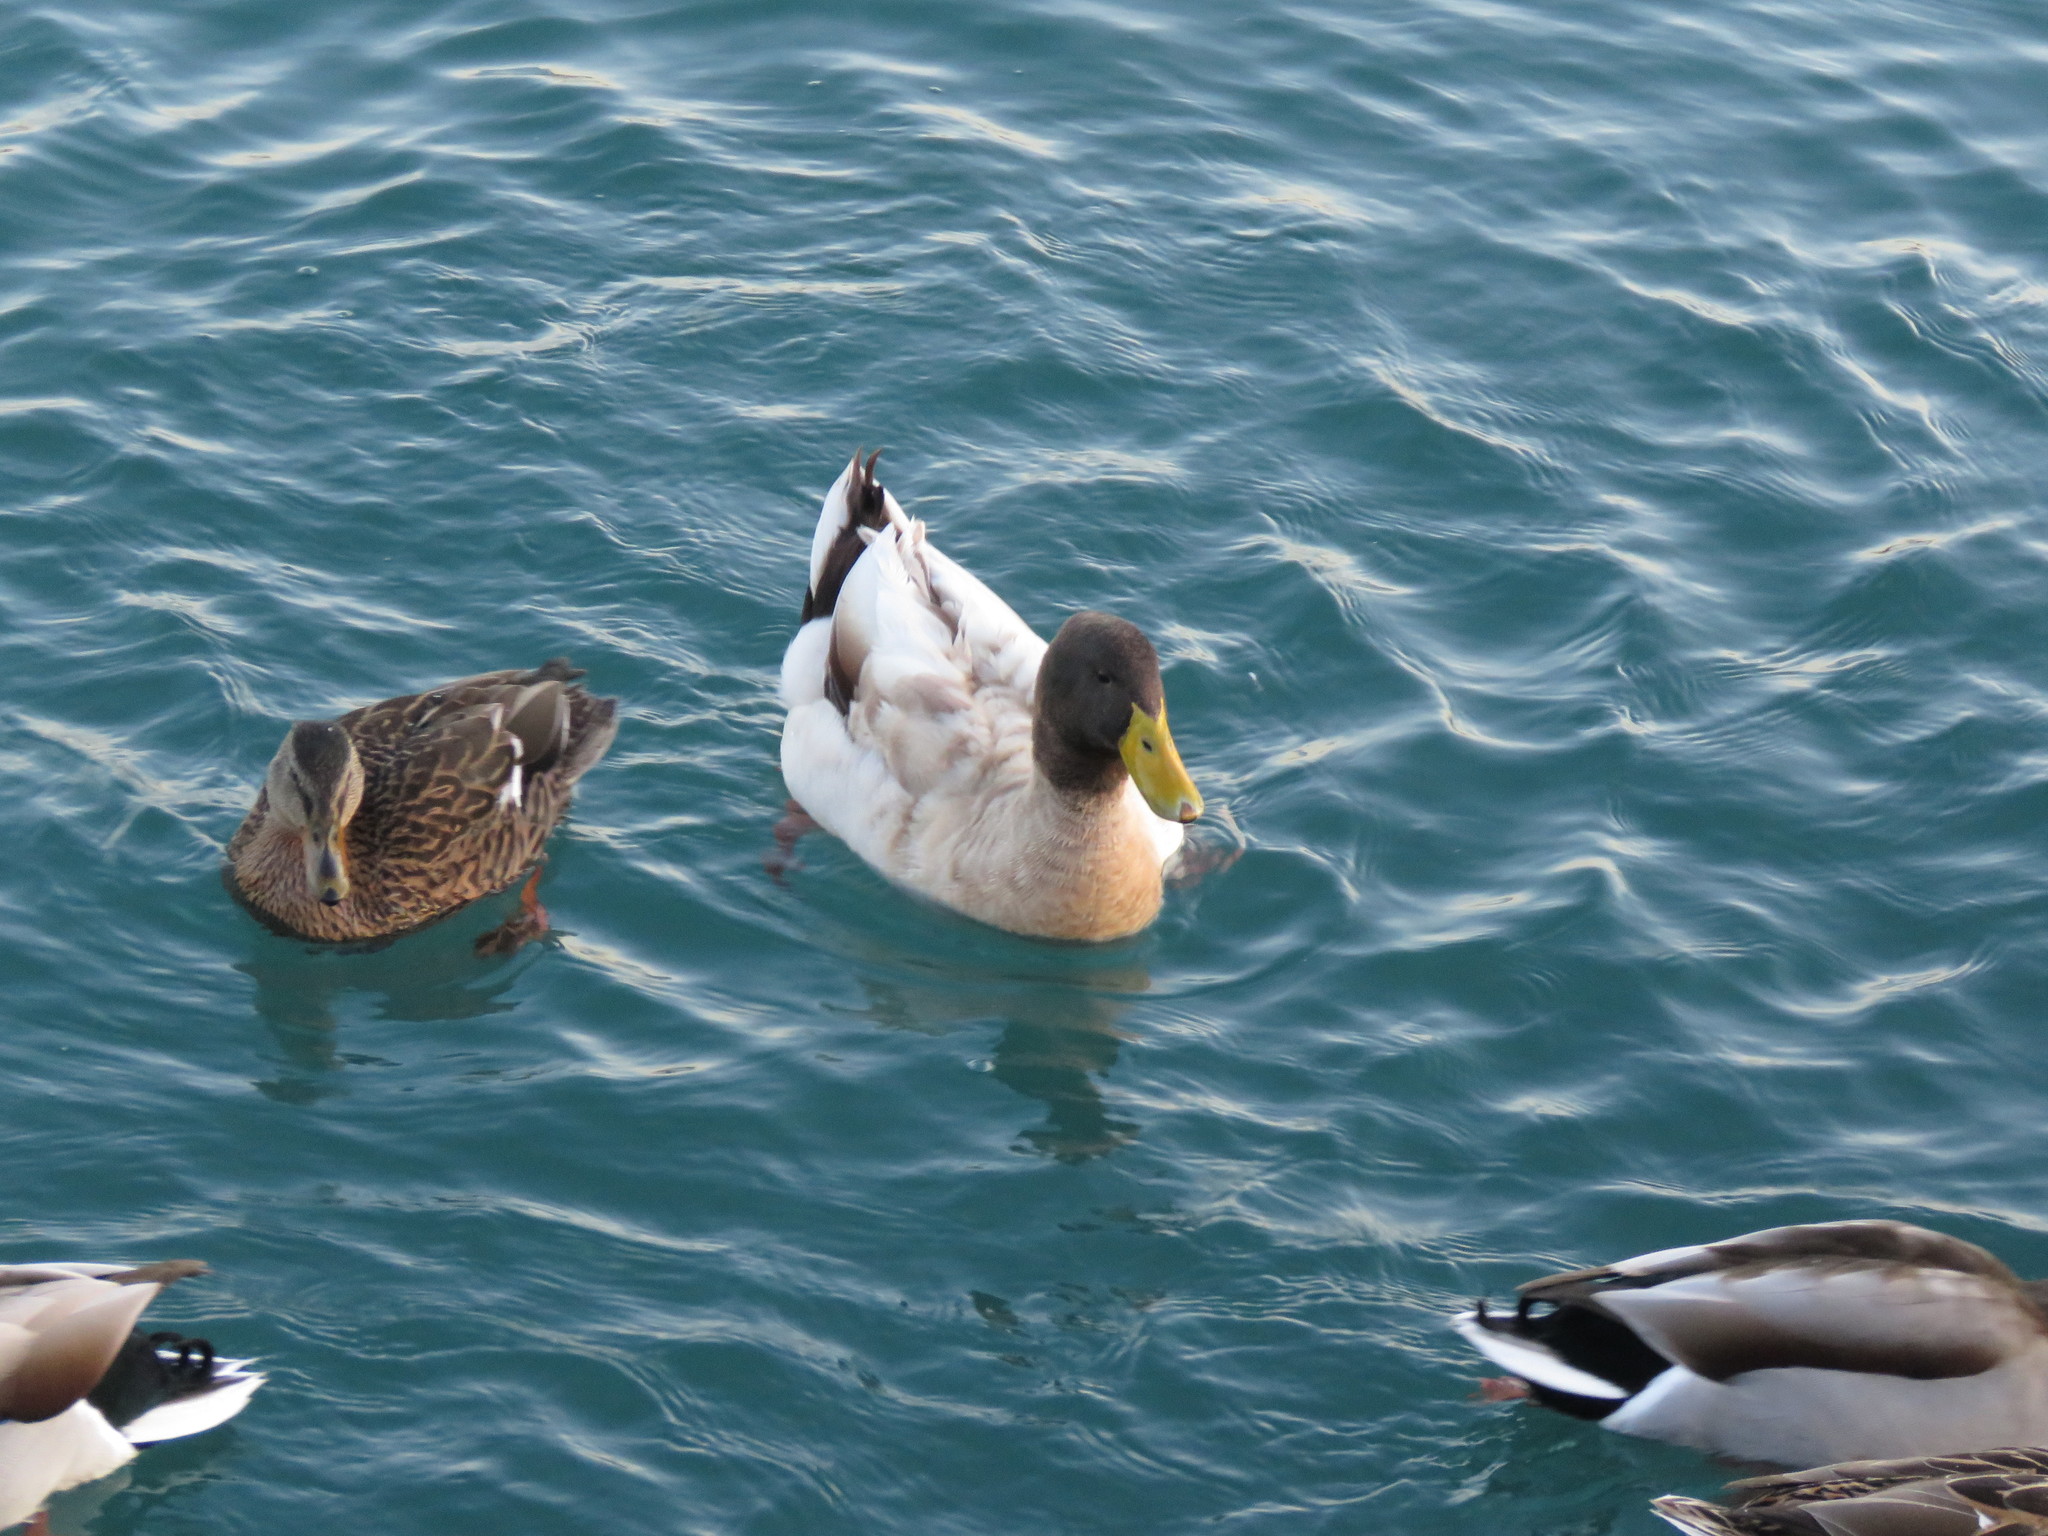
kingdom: Animalia
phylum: Chordata
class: Aves
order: Anseriformes
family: Anatidae
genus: Anas
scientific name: Anas platyrhynchos
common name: Mallard
